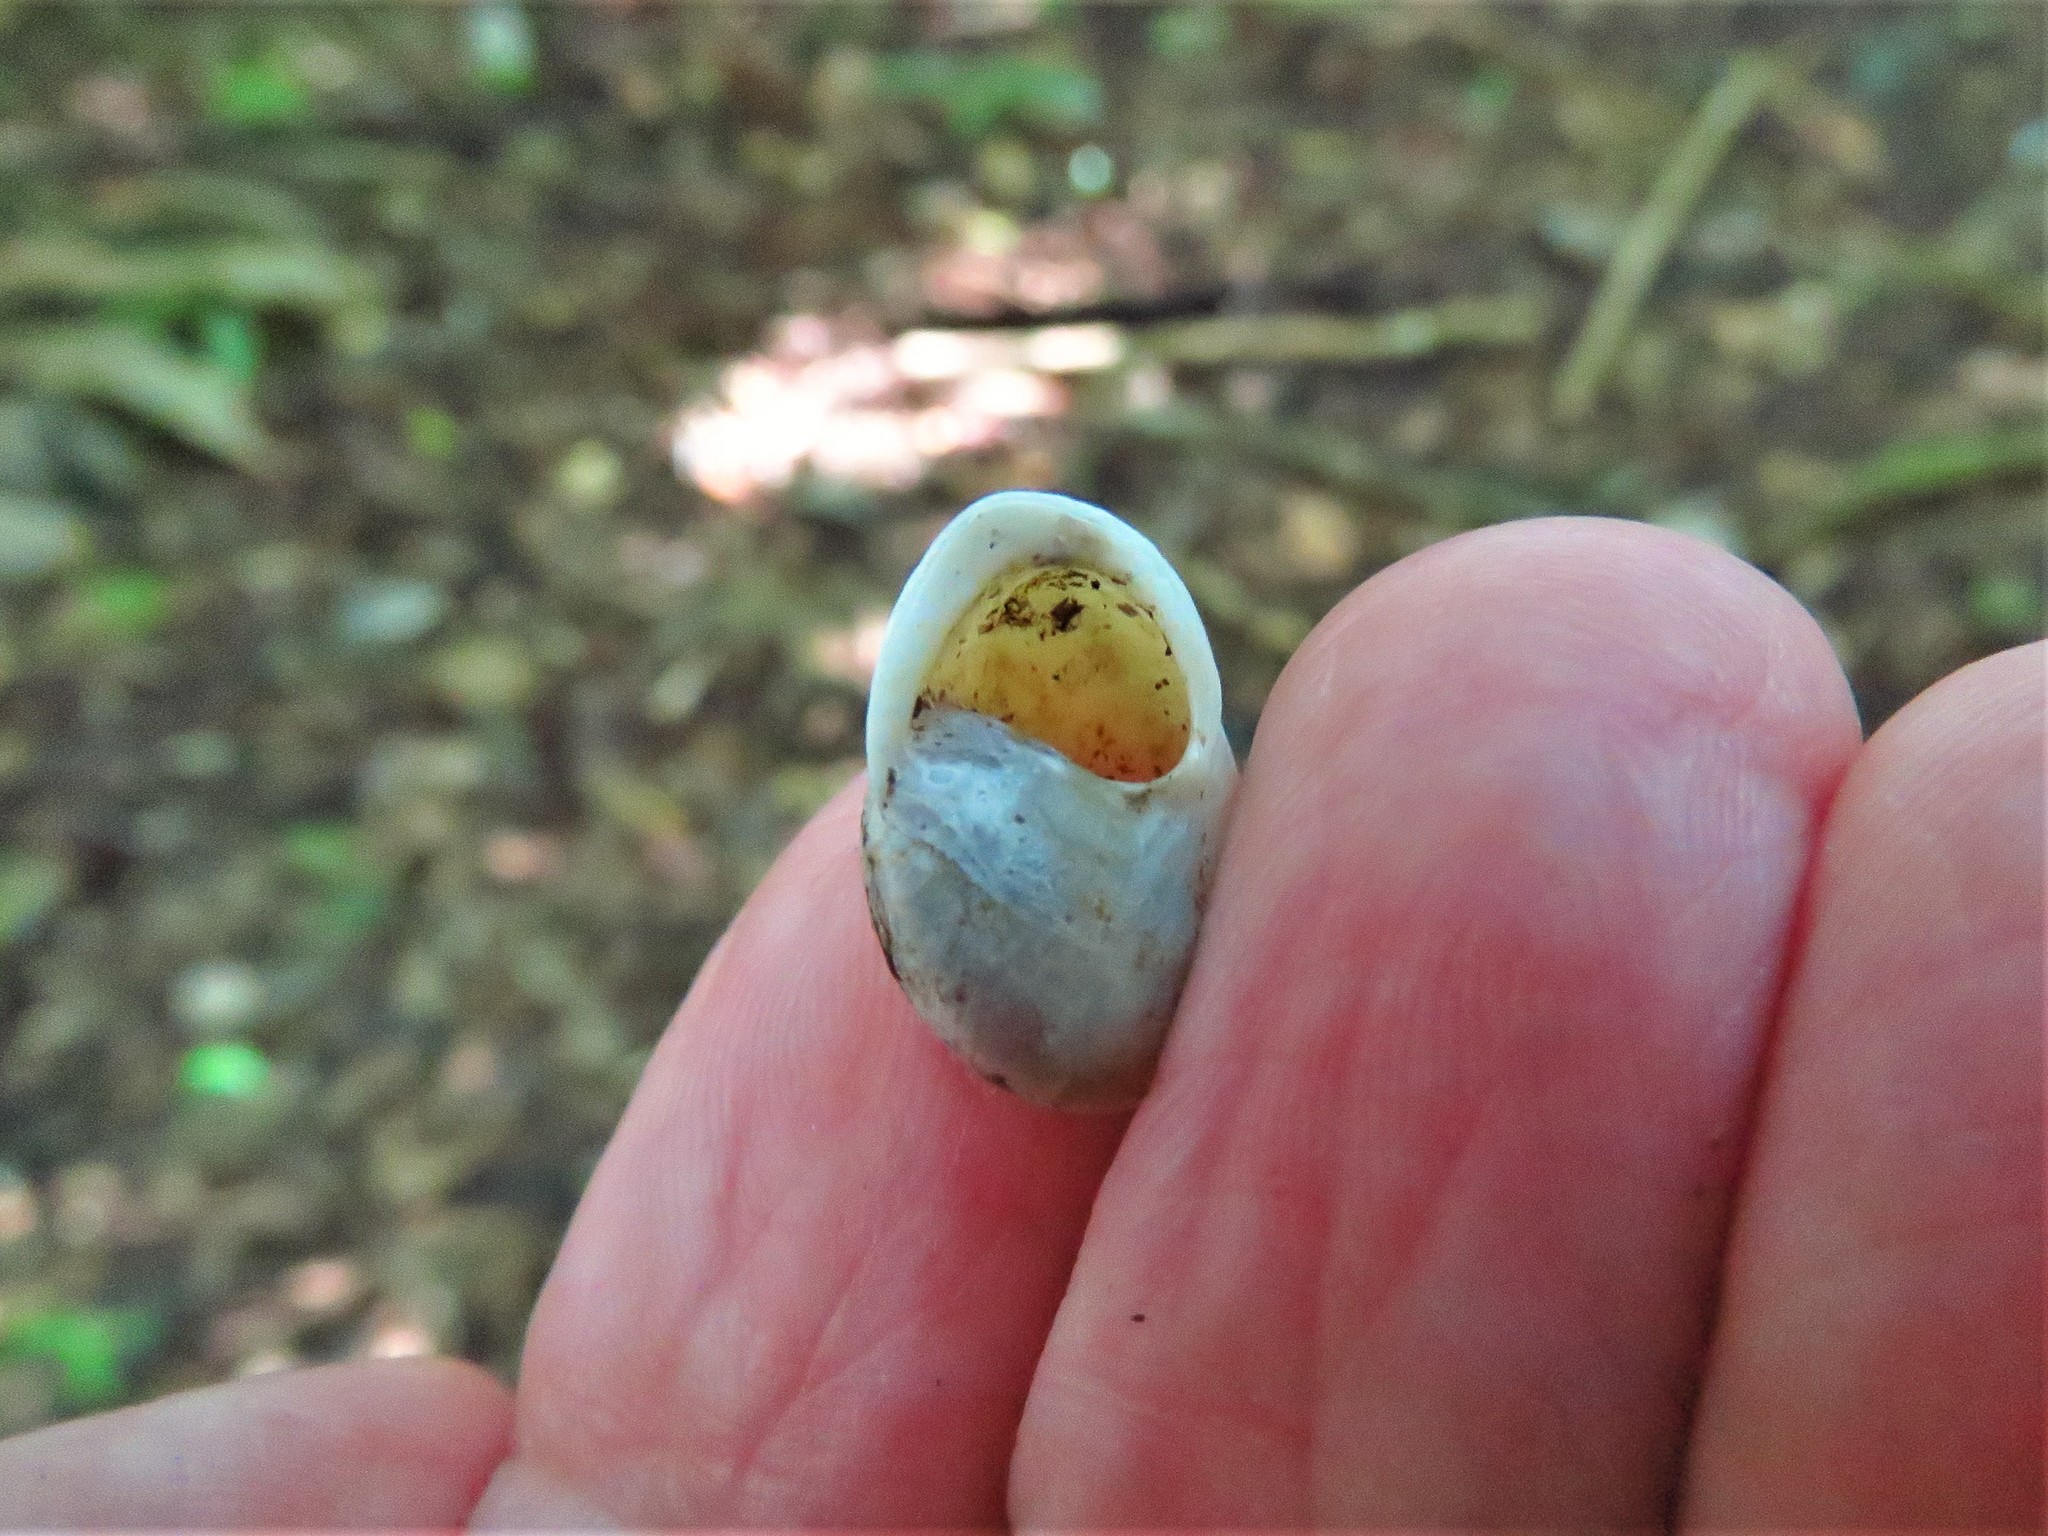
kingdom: Animalia
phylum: Mollusca
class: Gastropoda
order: Cycloneritida
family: Helicinidae
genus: Helicina
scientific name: Helicina amoena
